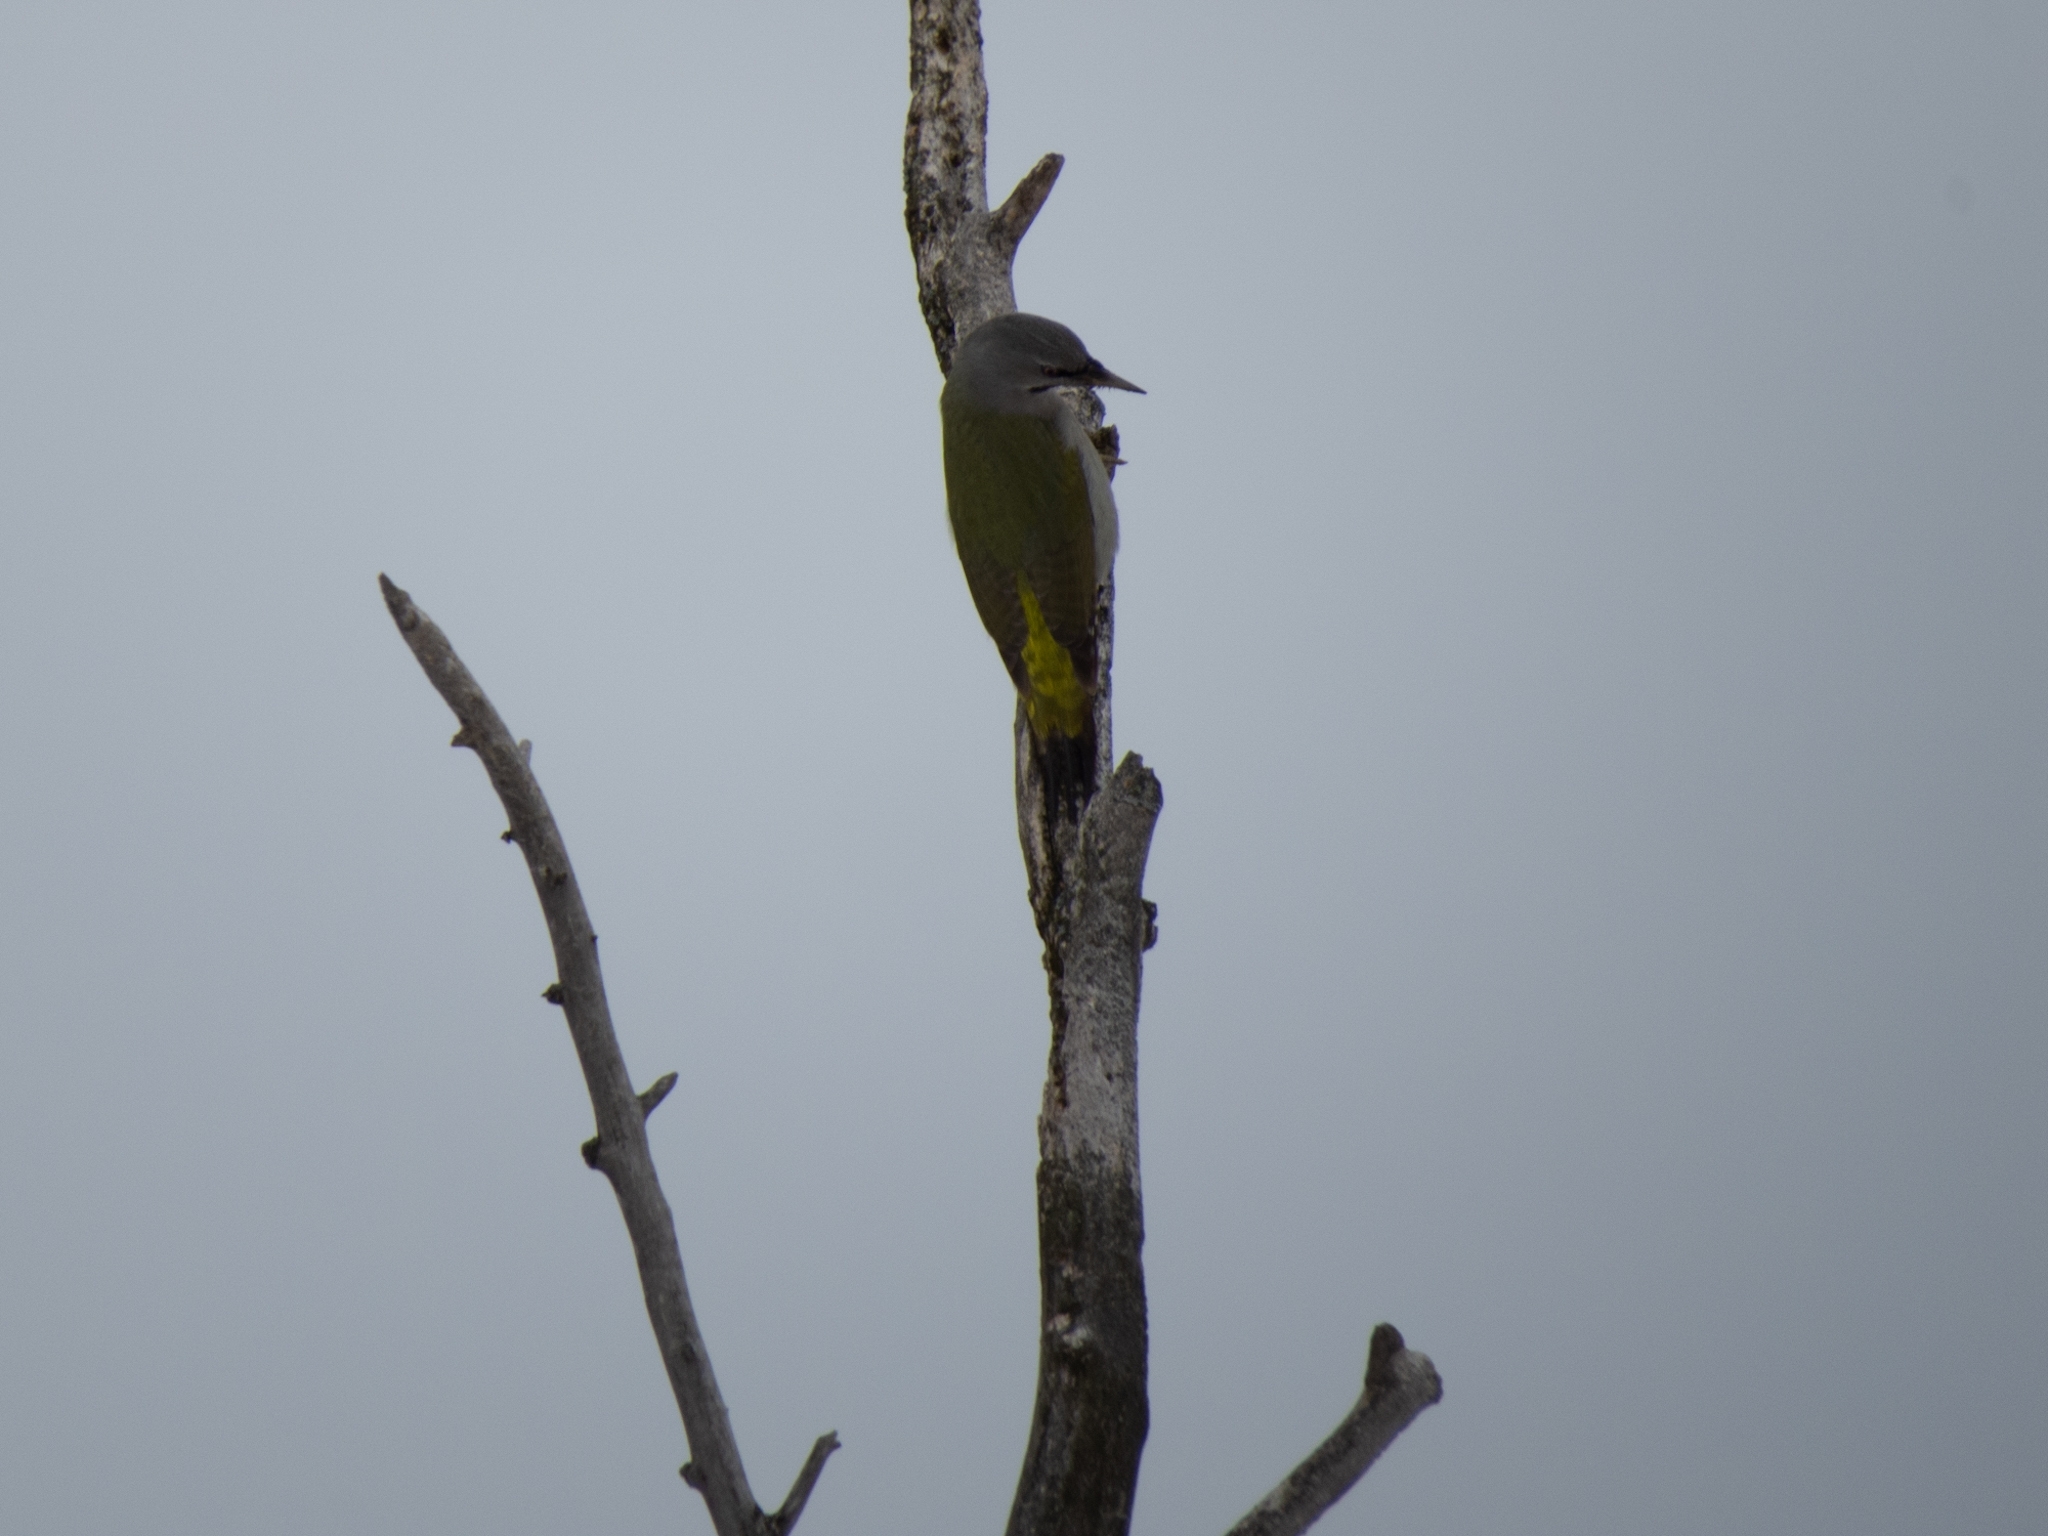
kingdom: Animalia
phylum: Chordata
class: Aves
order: Piciformes
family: Picidae
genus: Picus
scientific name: Picus canus
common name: Grey-headed woodpecker
